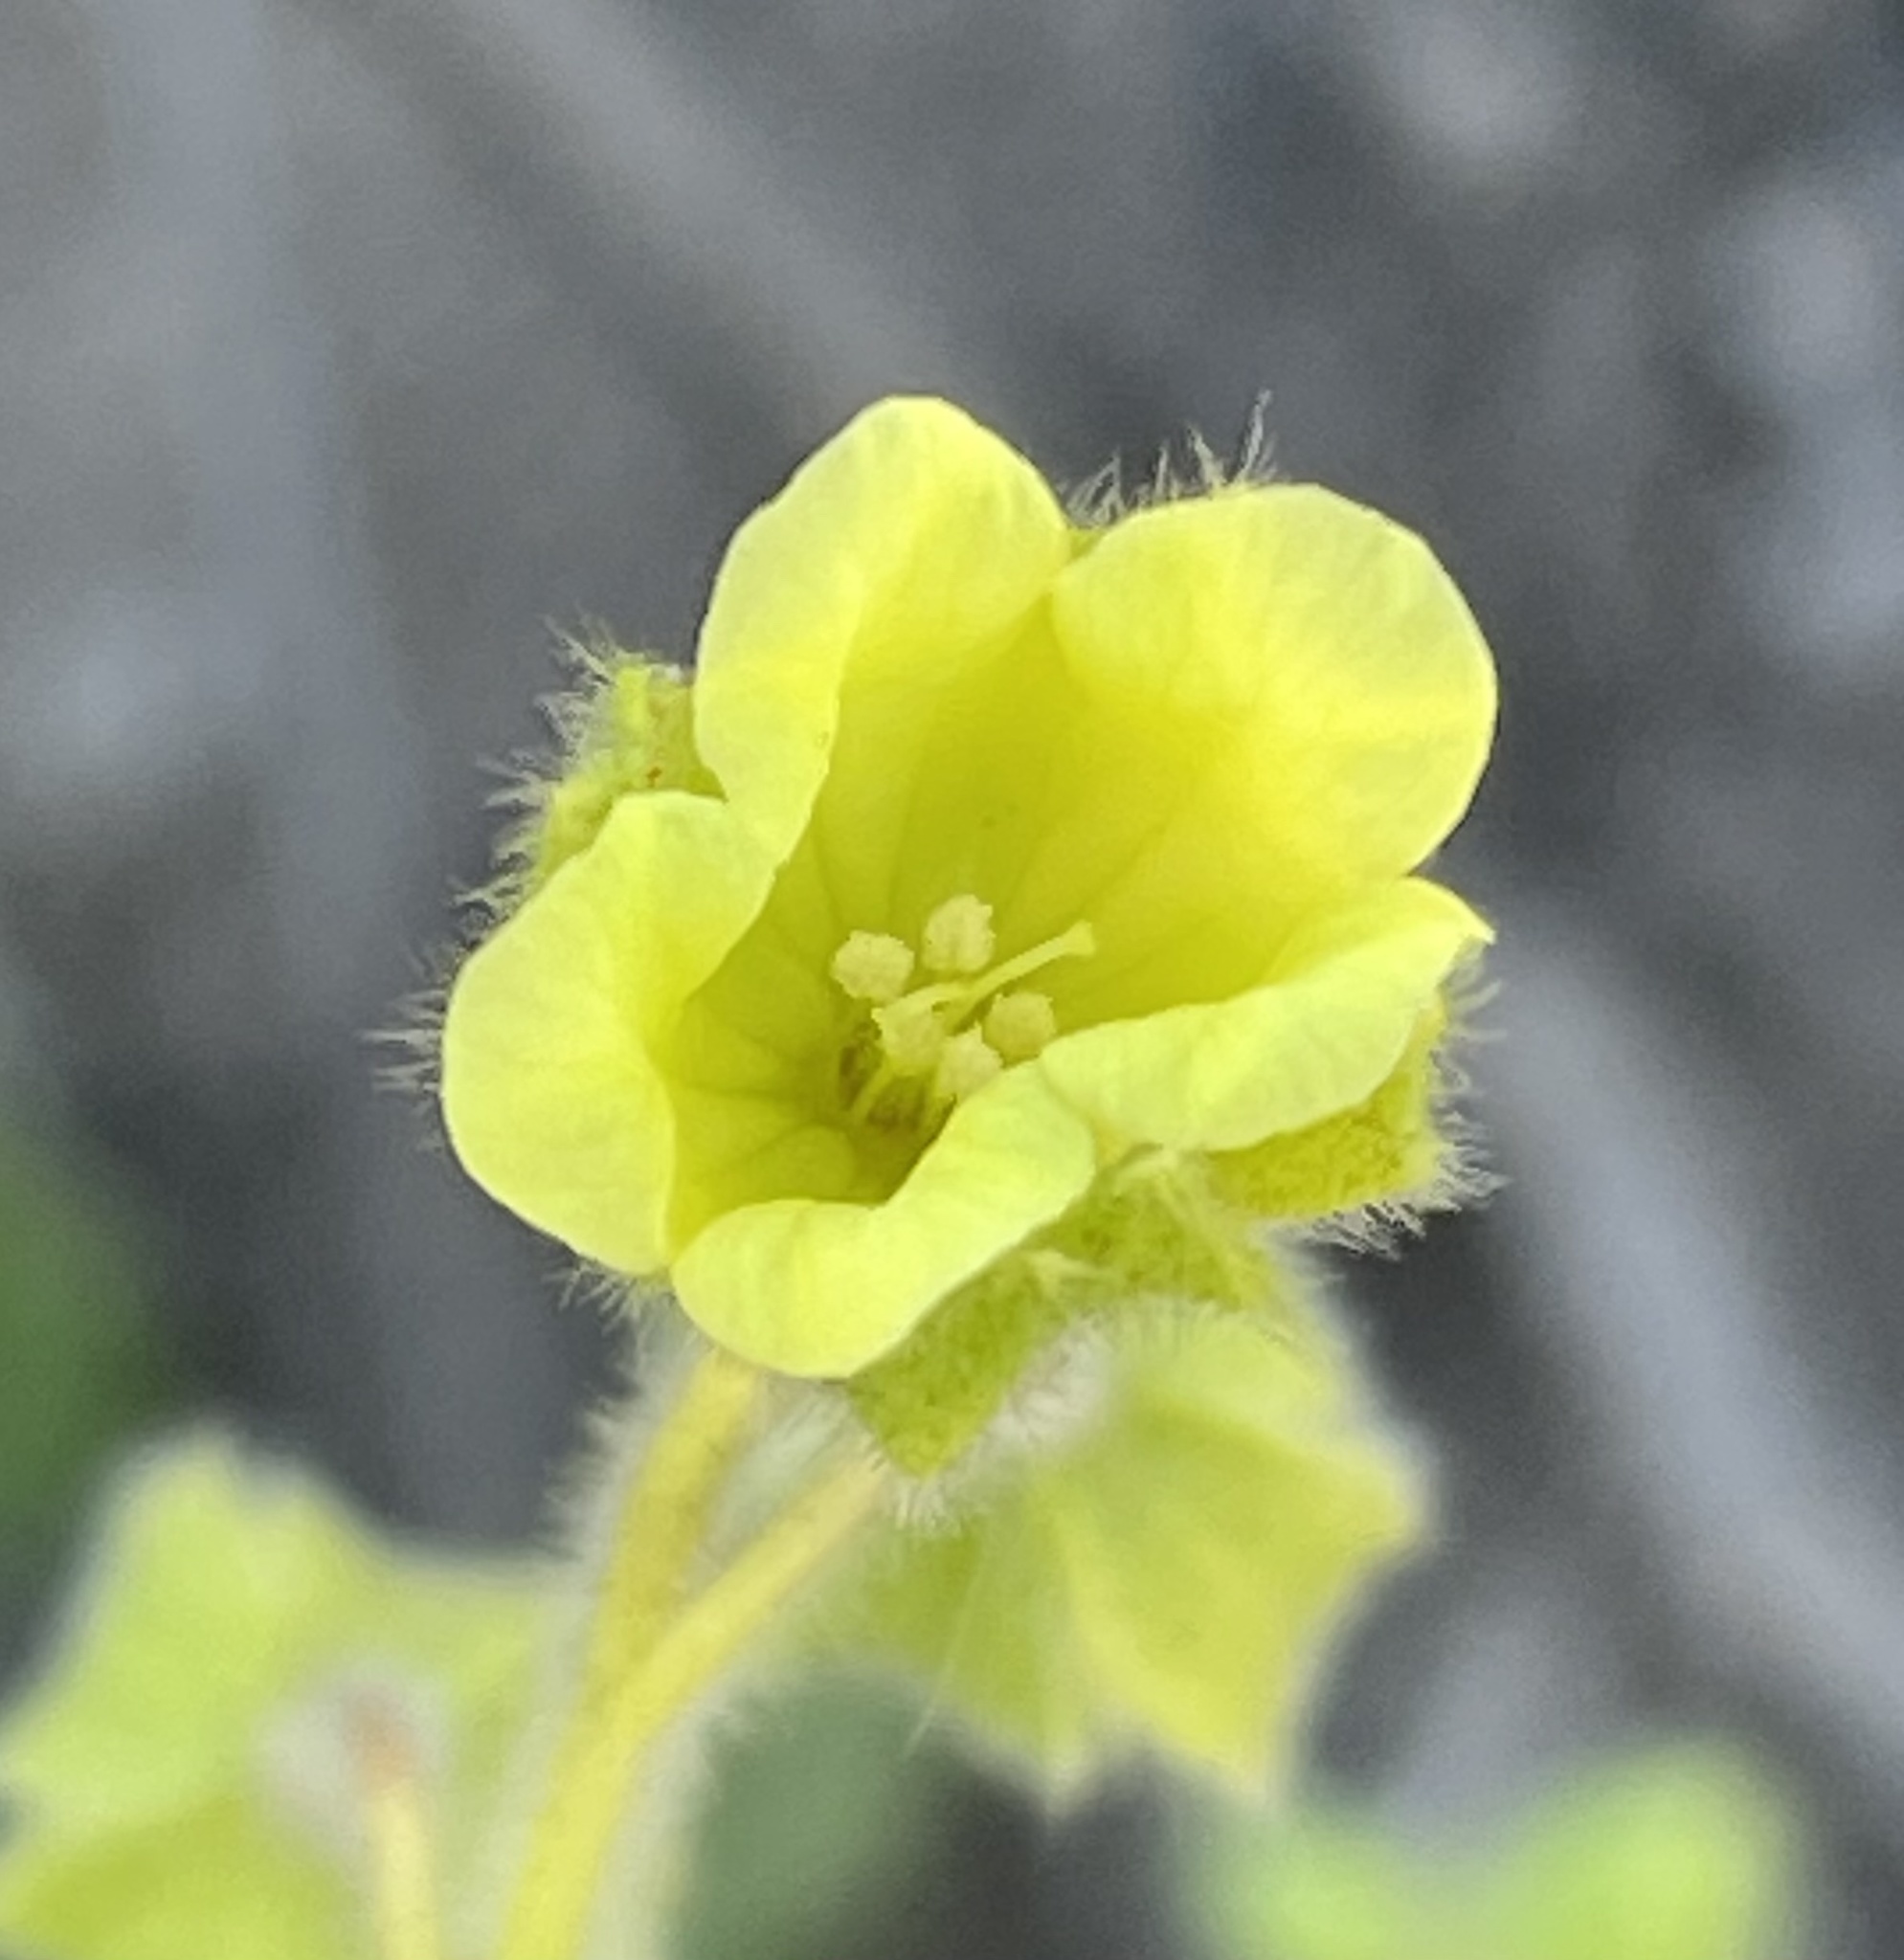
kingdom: Plantae
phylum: Tracheophyta
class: Magnoliopsida
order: Boraginales
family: Hydrophyllaceae
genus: Emmenanthe
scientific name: Emmenanthe penduliflora
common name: Whispering-bells
